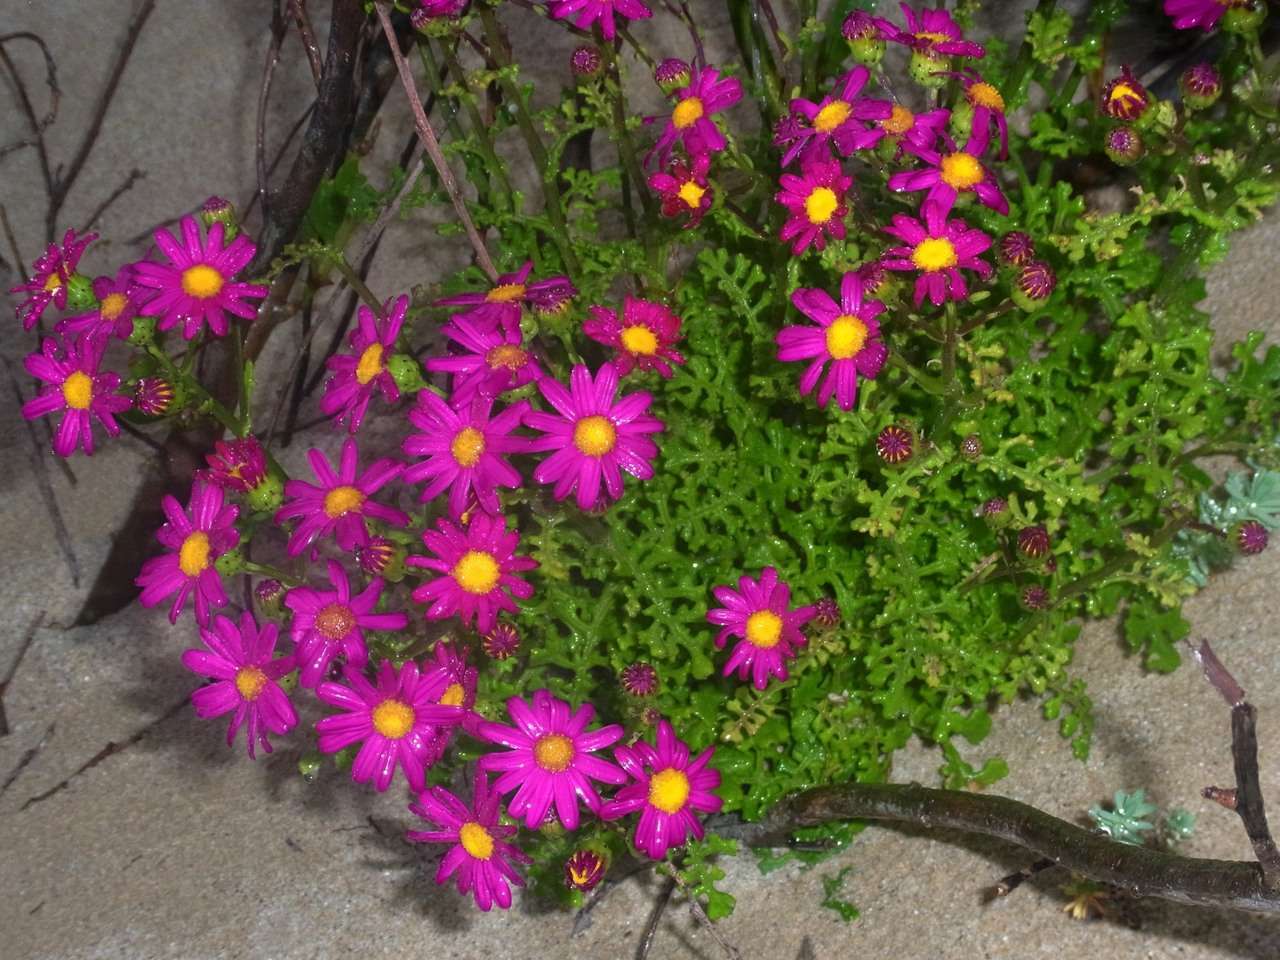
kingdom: Plantae
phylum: Tracheophyta
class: Magnoliopsida
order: Asterales
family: Asteraceae
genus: Senecio
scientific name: Senecio elegans
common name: Purple groundsel
